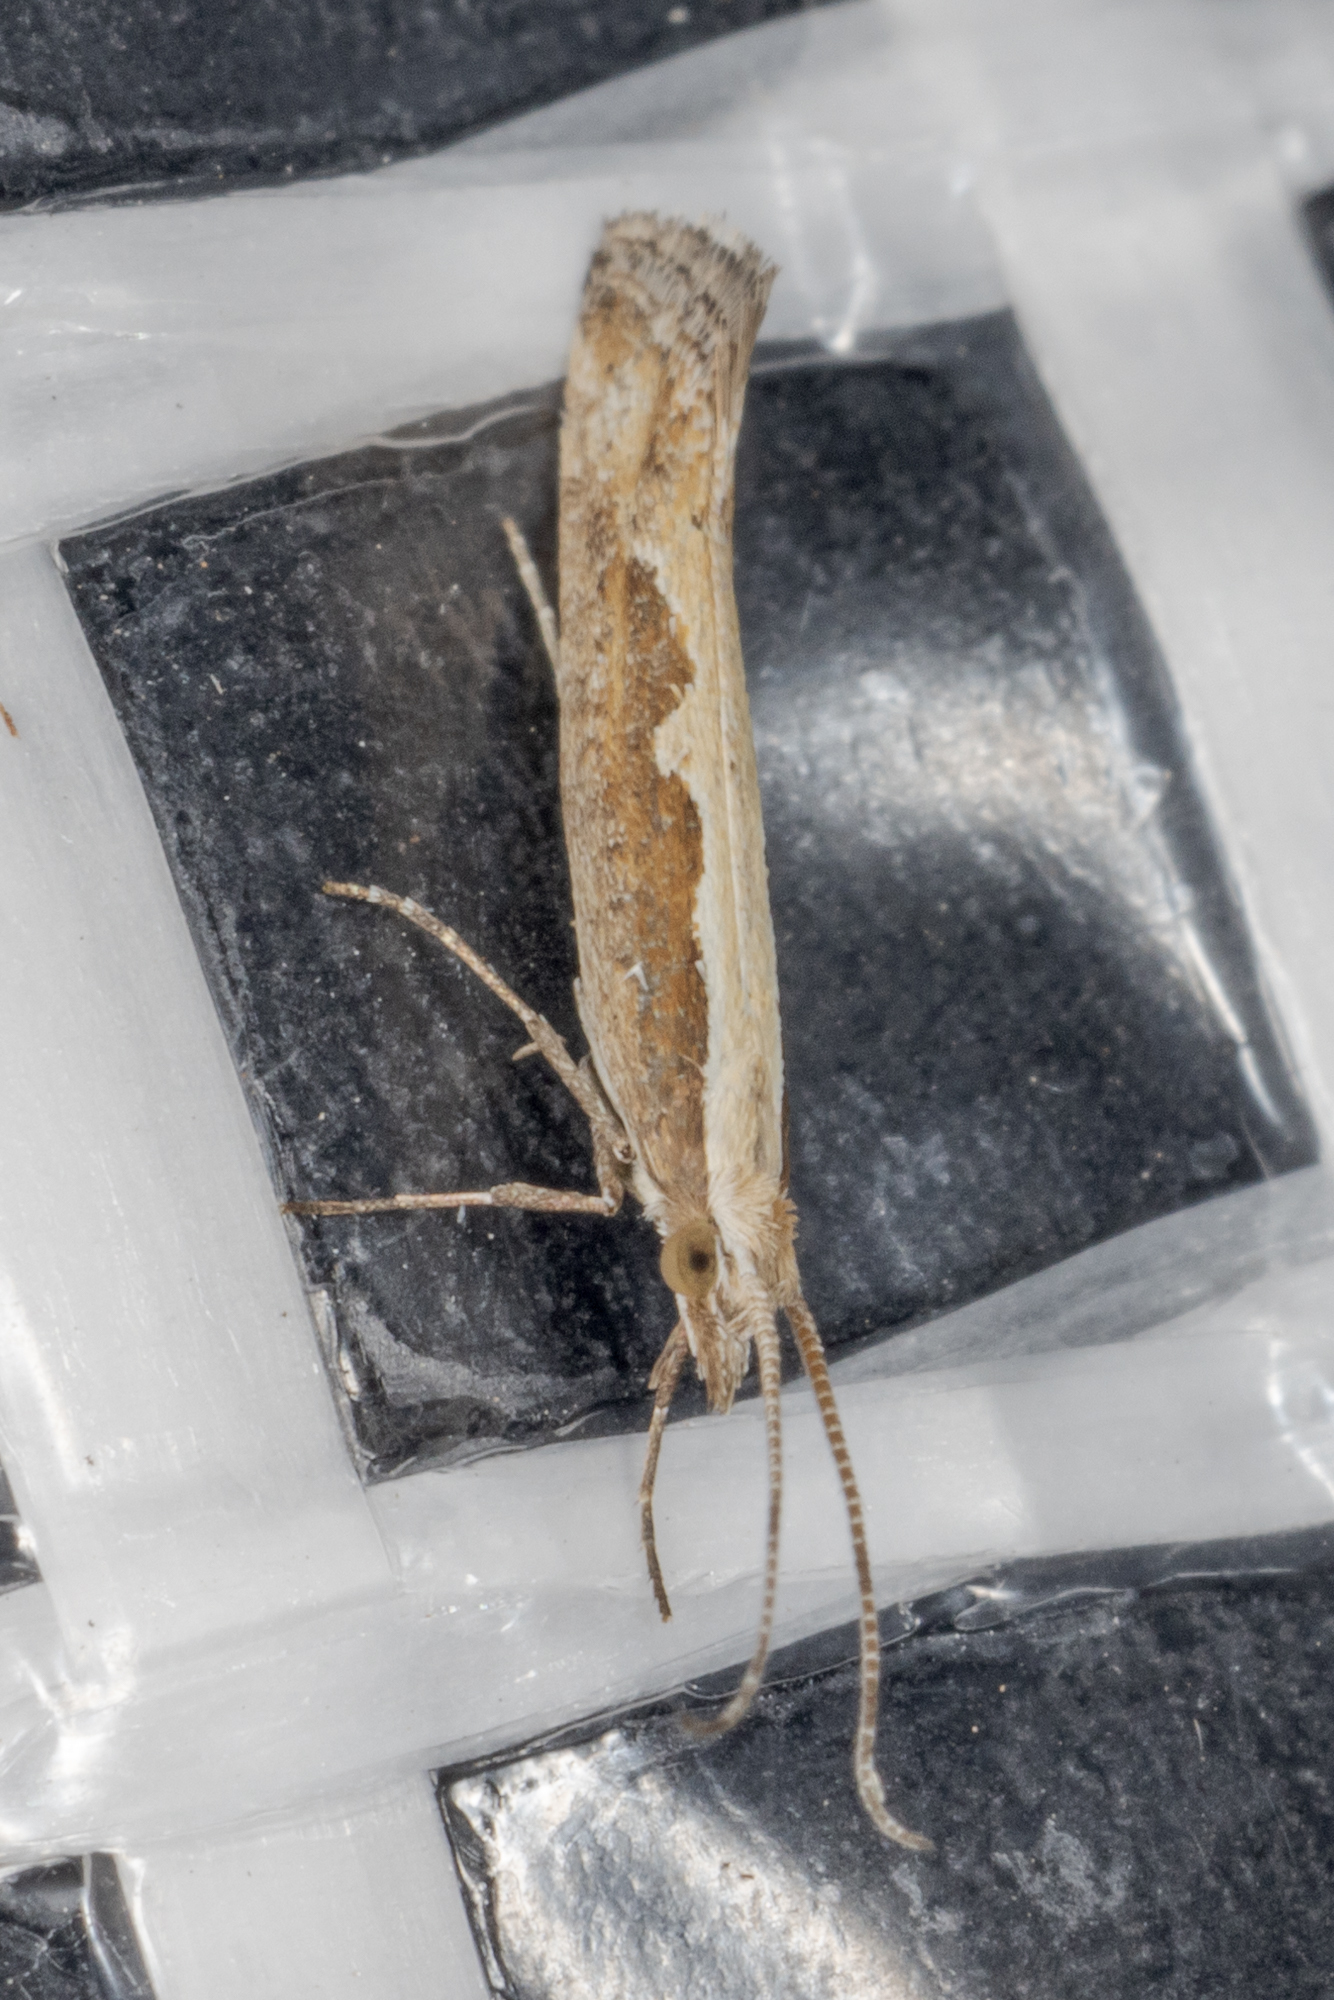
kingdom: Animalia
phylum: Arthropoda
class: Insecta
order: Lepidoptera
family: Plutellidae
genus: Plutella
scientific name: Plutella xylostella
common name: Diamond-back moth
